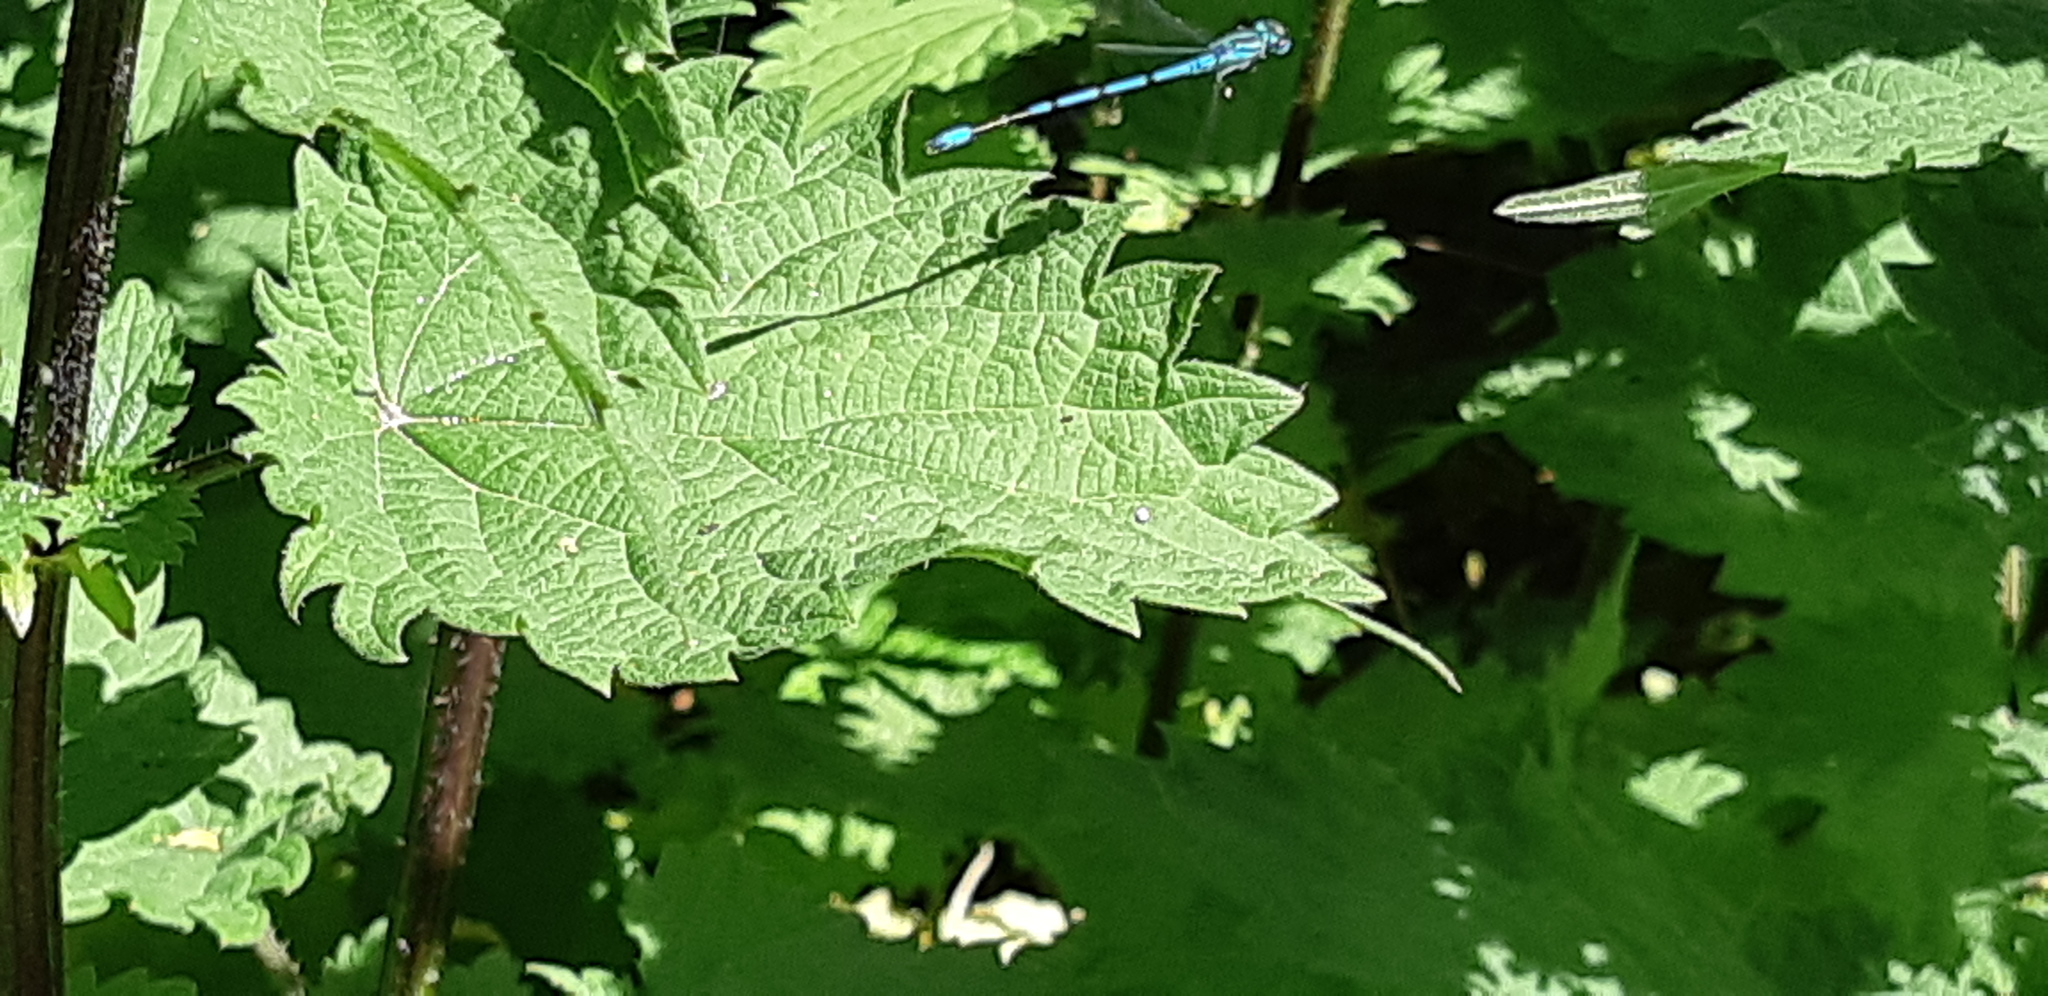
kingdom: Animalia
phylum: Arthropoda
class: Insecta
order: Odonata
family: Coenagrionidae
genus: Coenagrion
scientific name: Coenagrion puella
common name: Azure damselfly
